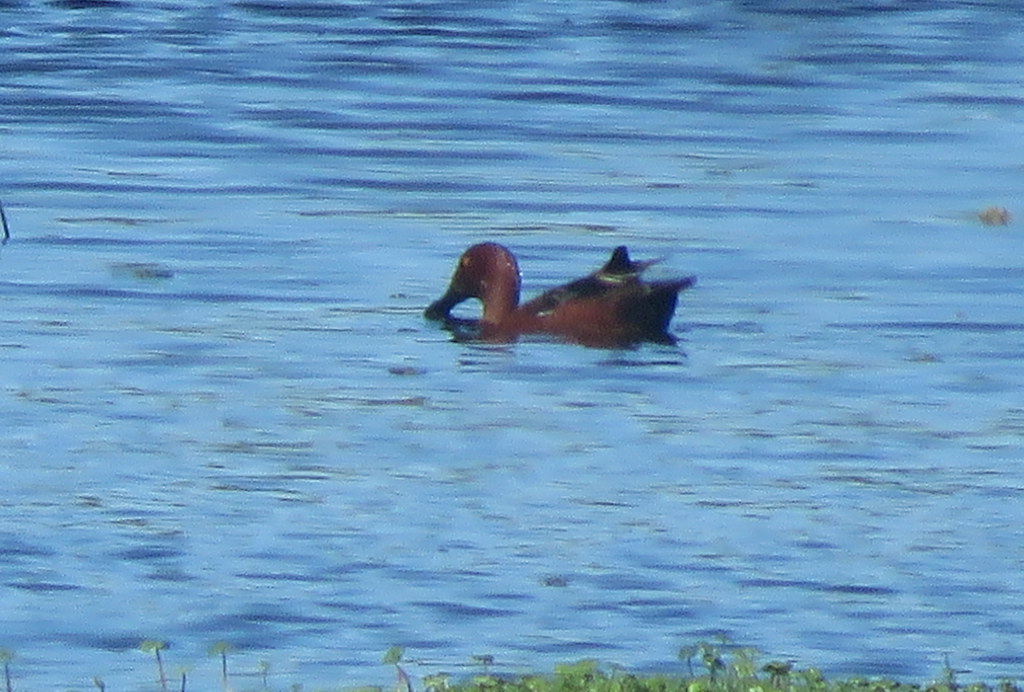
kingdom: Animalia
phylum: Chordata
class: Aves
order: Anseriformes
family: Anatidae
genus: Spatula
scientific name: Spatula cyanoptera
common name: Cinnamon teal
